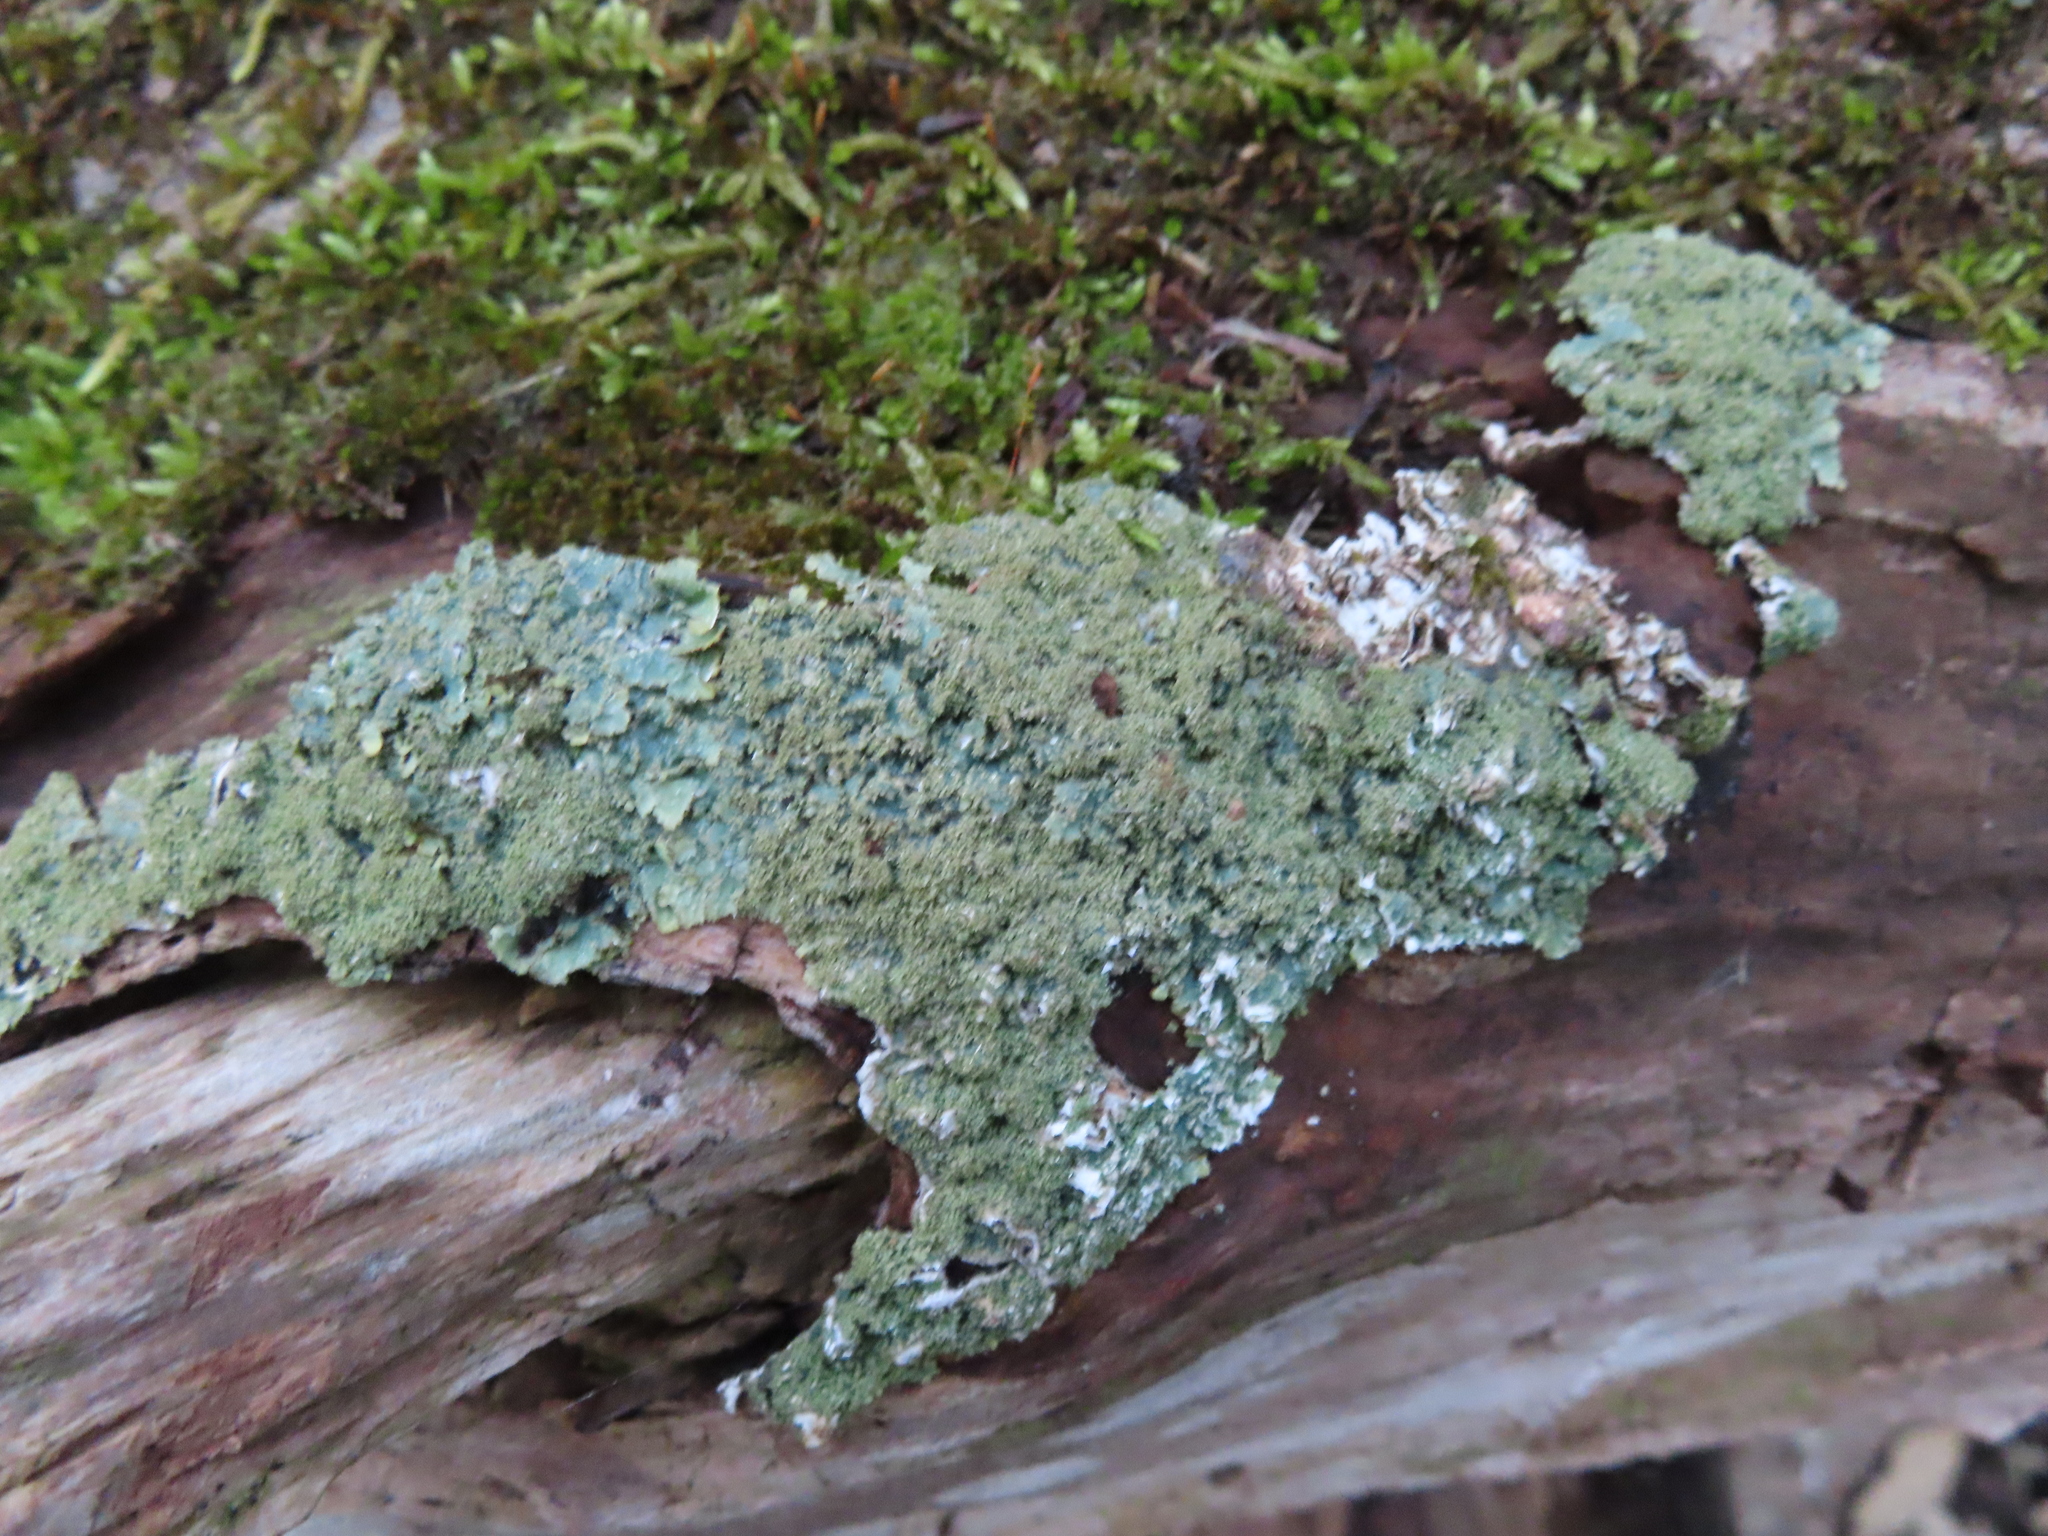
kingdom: Fungi
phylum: Ascomycota
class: Lecanoromycetes
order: Lecanorales
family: Parmeliaceae
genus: Punctelia
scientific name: Punctelia rudecta
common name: Rough speckled shield lichen
